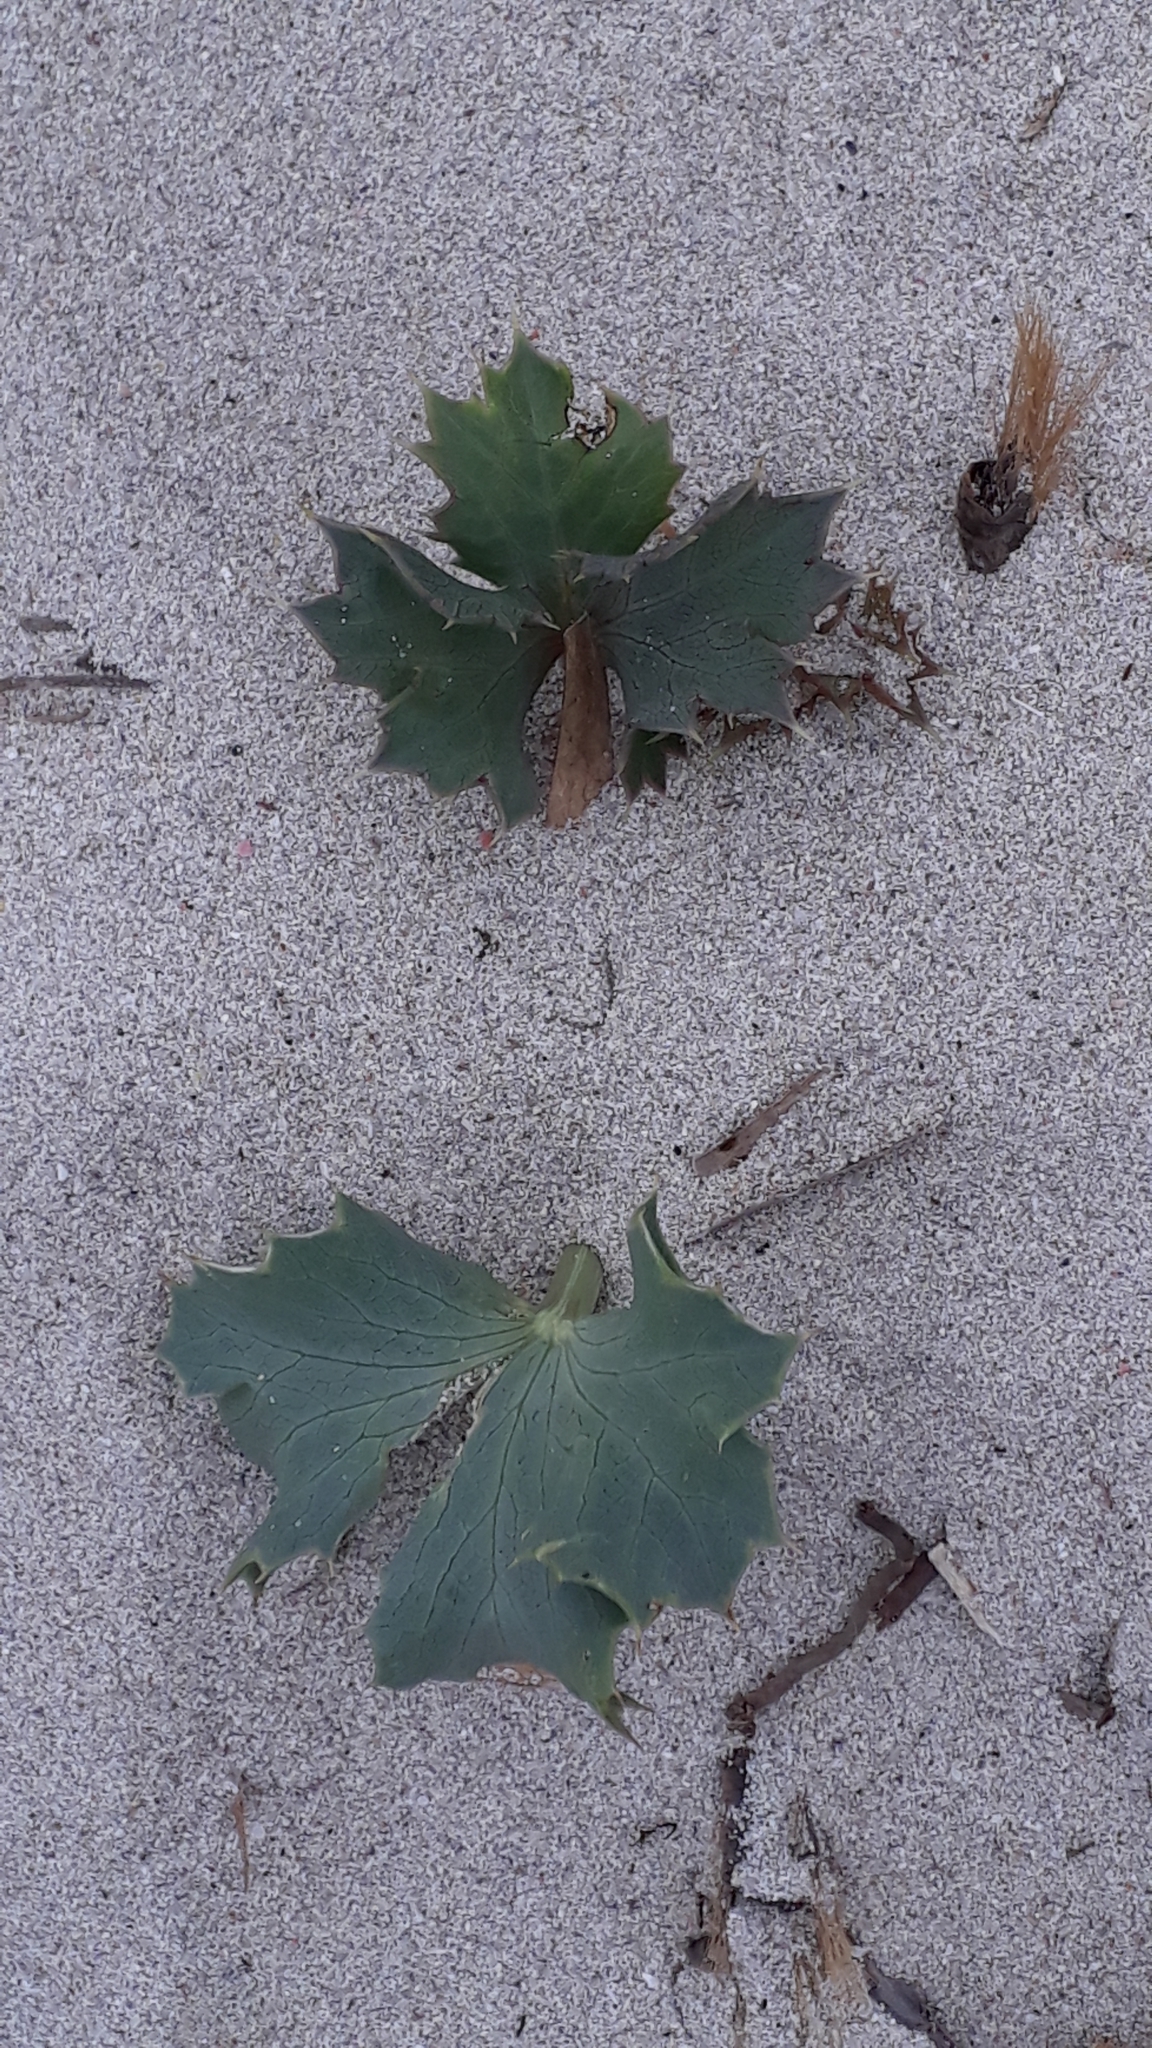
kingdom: Plantae
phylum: Tracheophyta
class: Magnoliopsida
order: Apiales
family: Apiaceae
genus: Eryngium
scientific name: Eryngium maritimum
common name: Sea-holly
